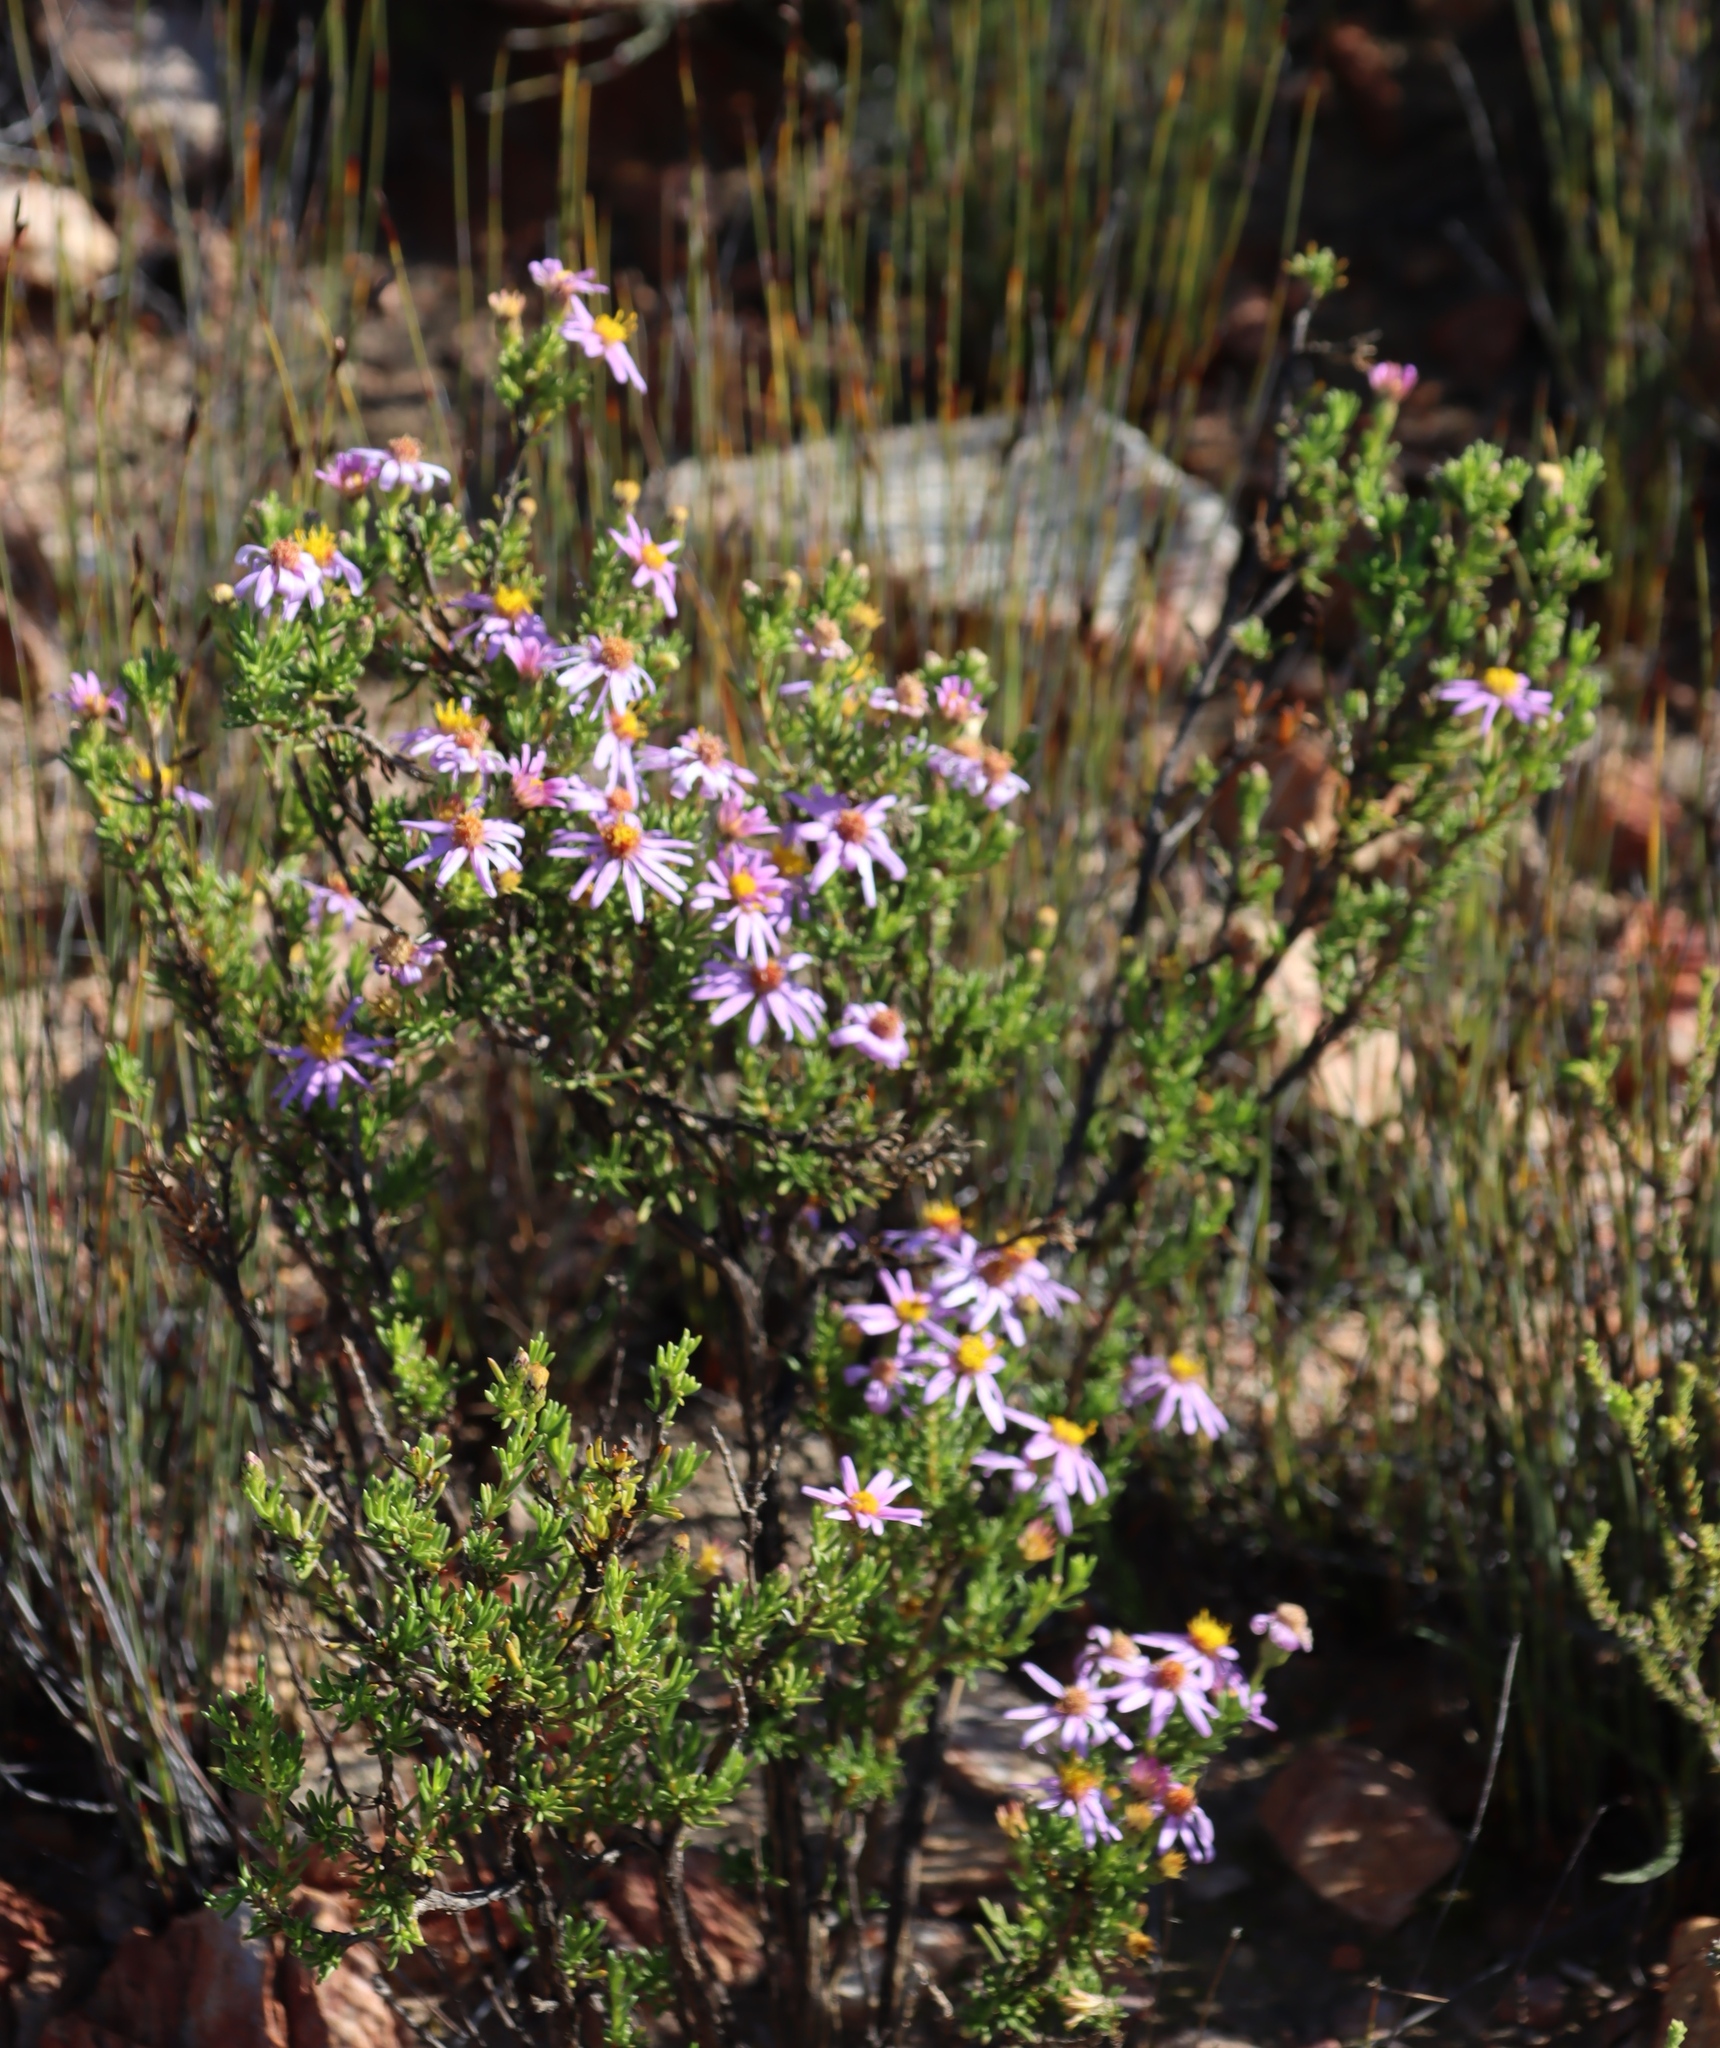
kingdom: Plantae
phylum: Tracheophyta
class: Magnoliopsida
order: Asterales
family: Asteraceae
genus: Felicia
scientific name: Felicia filifolia
